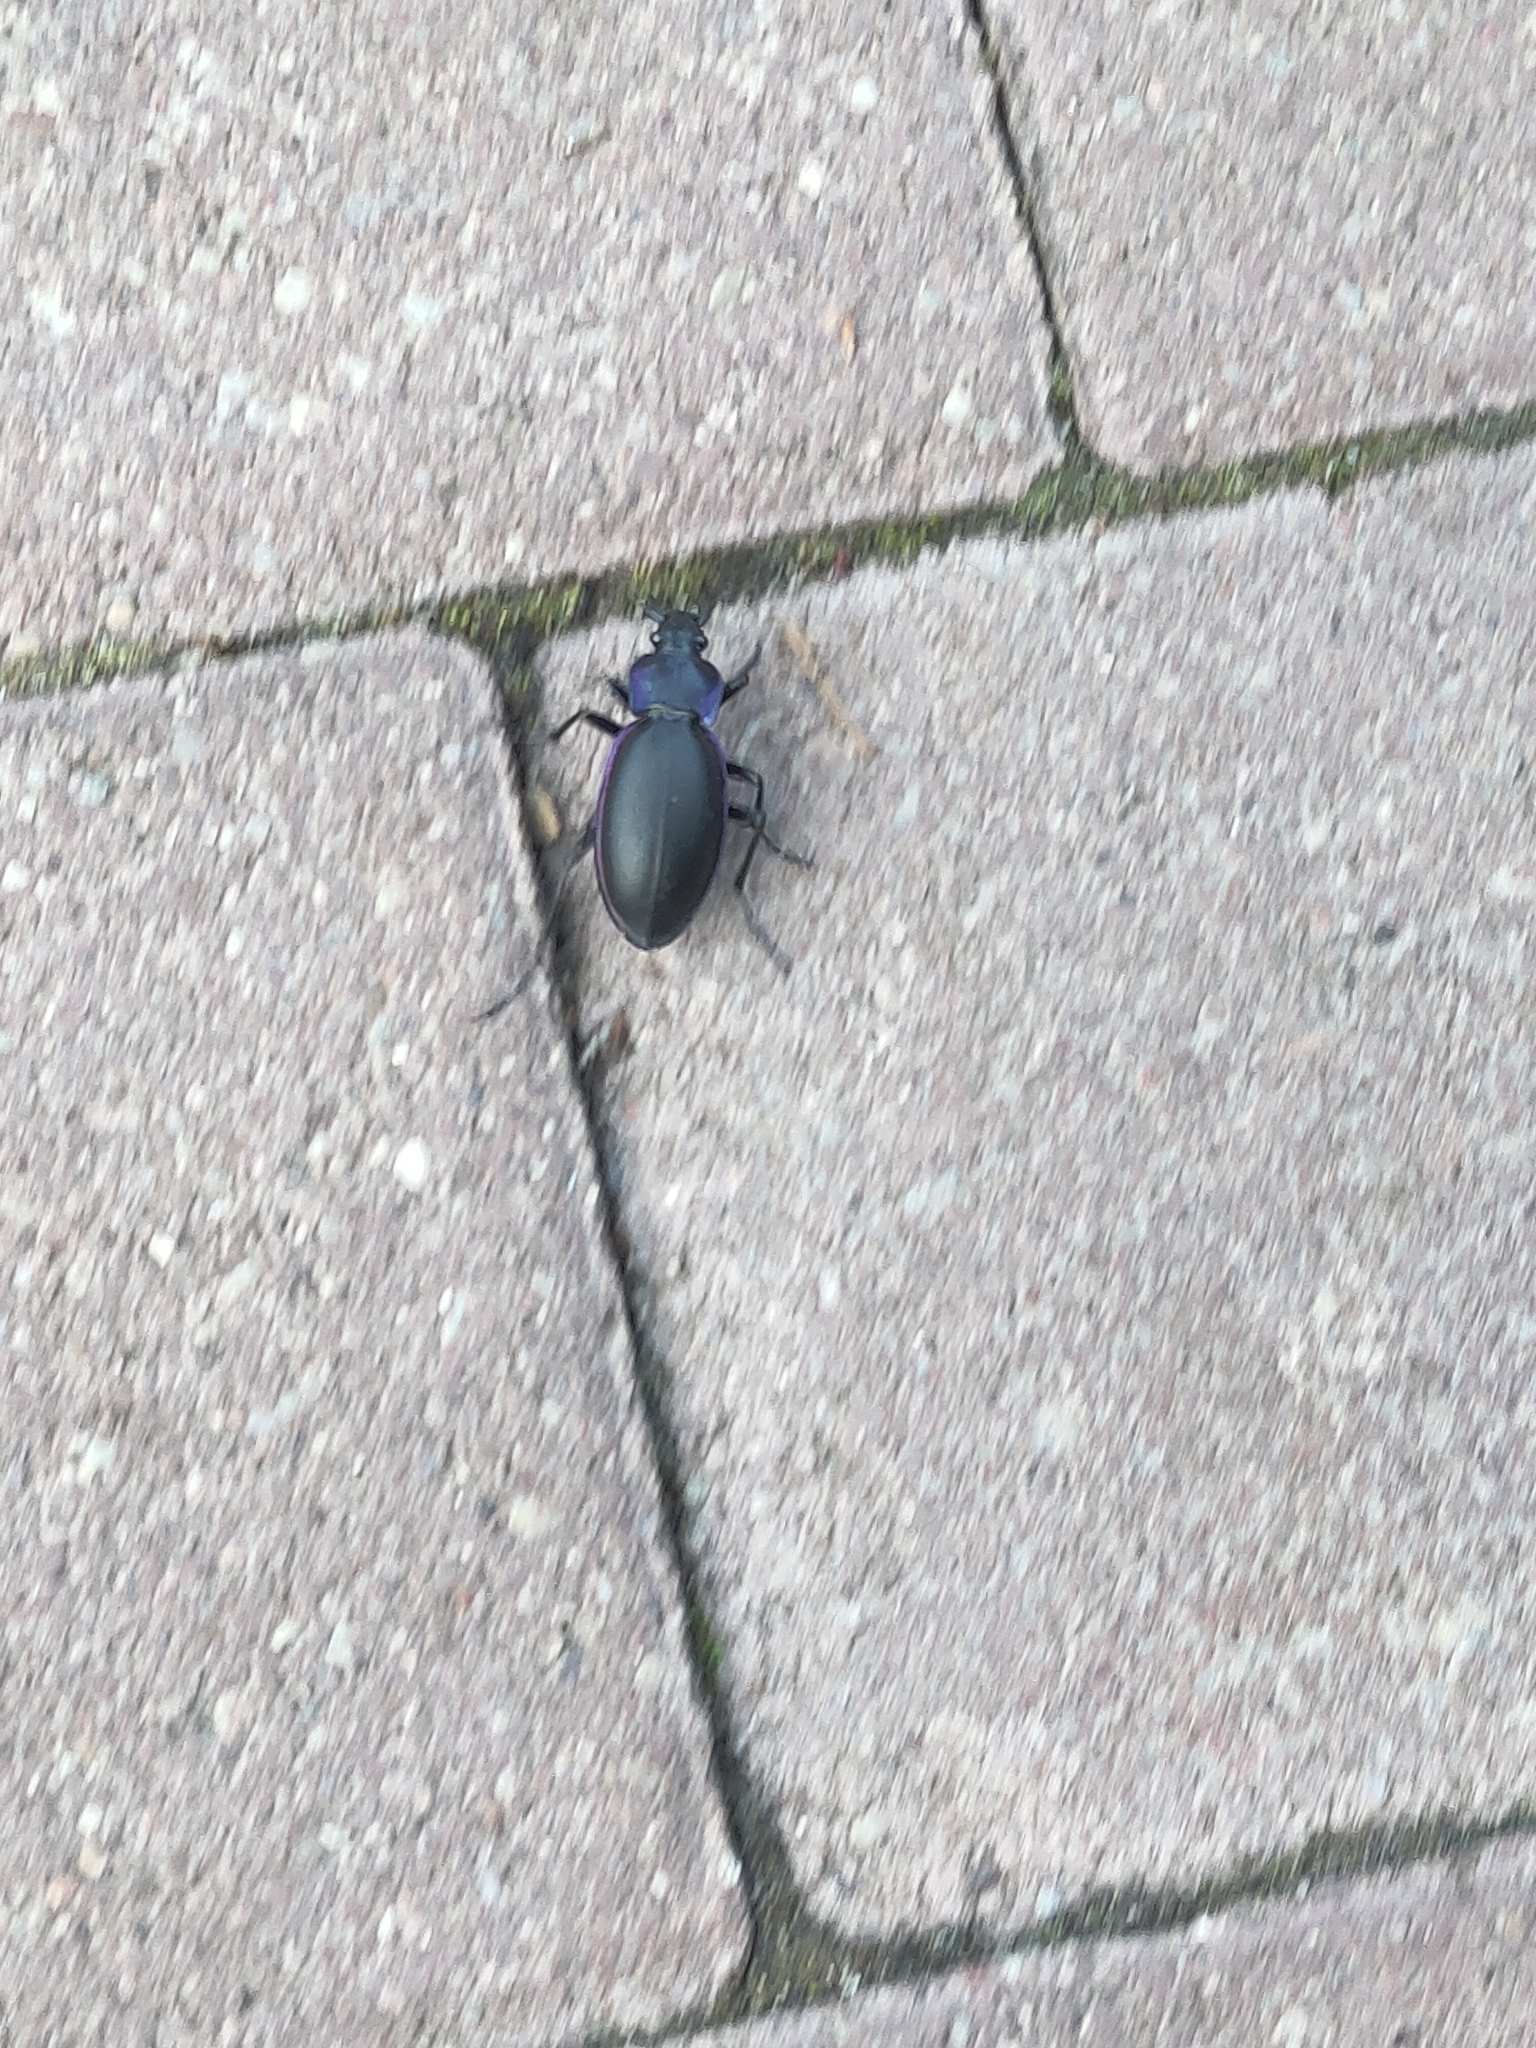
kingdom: Animalia
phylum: Arthropoda
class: Insecta
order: Coleoptera
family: Carabidae
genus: Carabus
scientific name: Carabus violaceus
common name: Violet ground beetle
